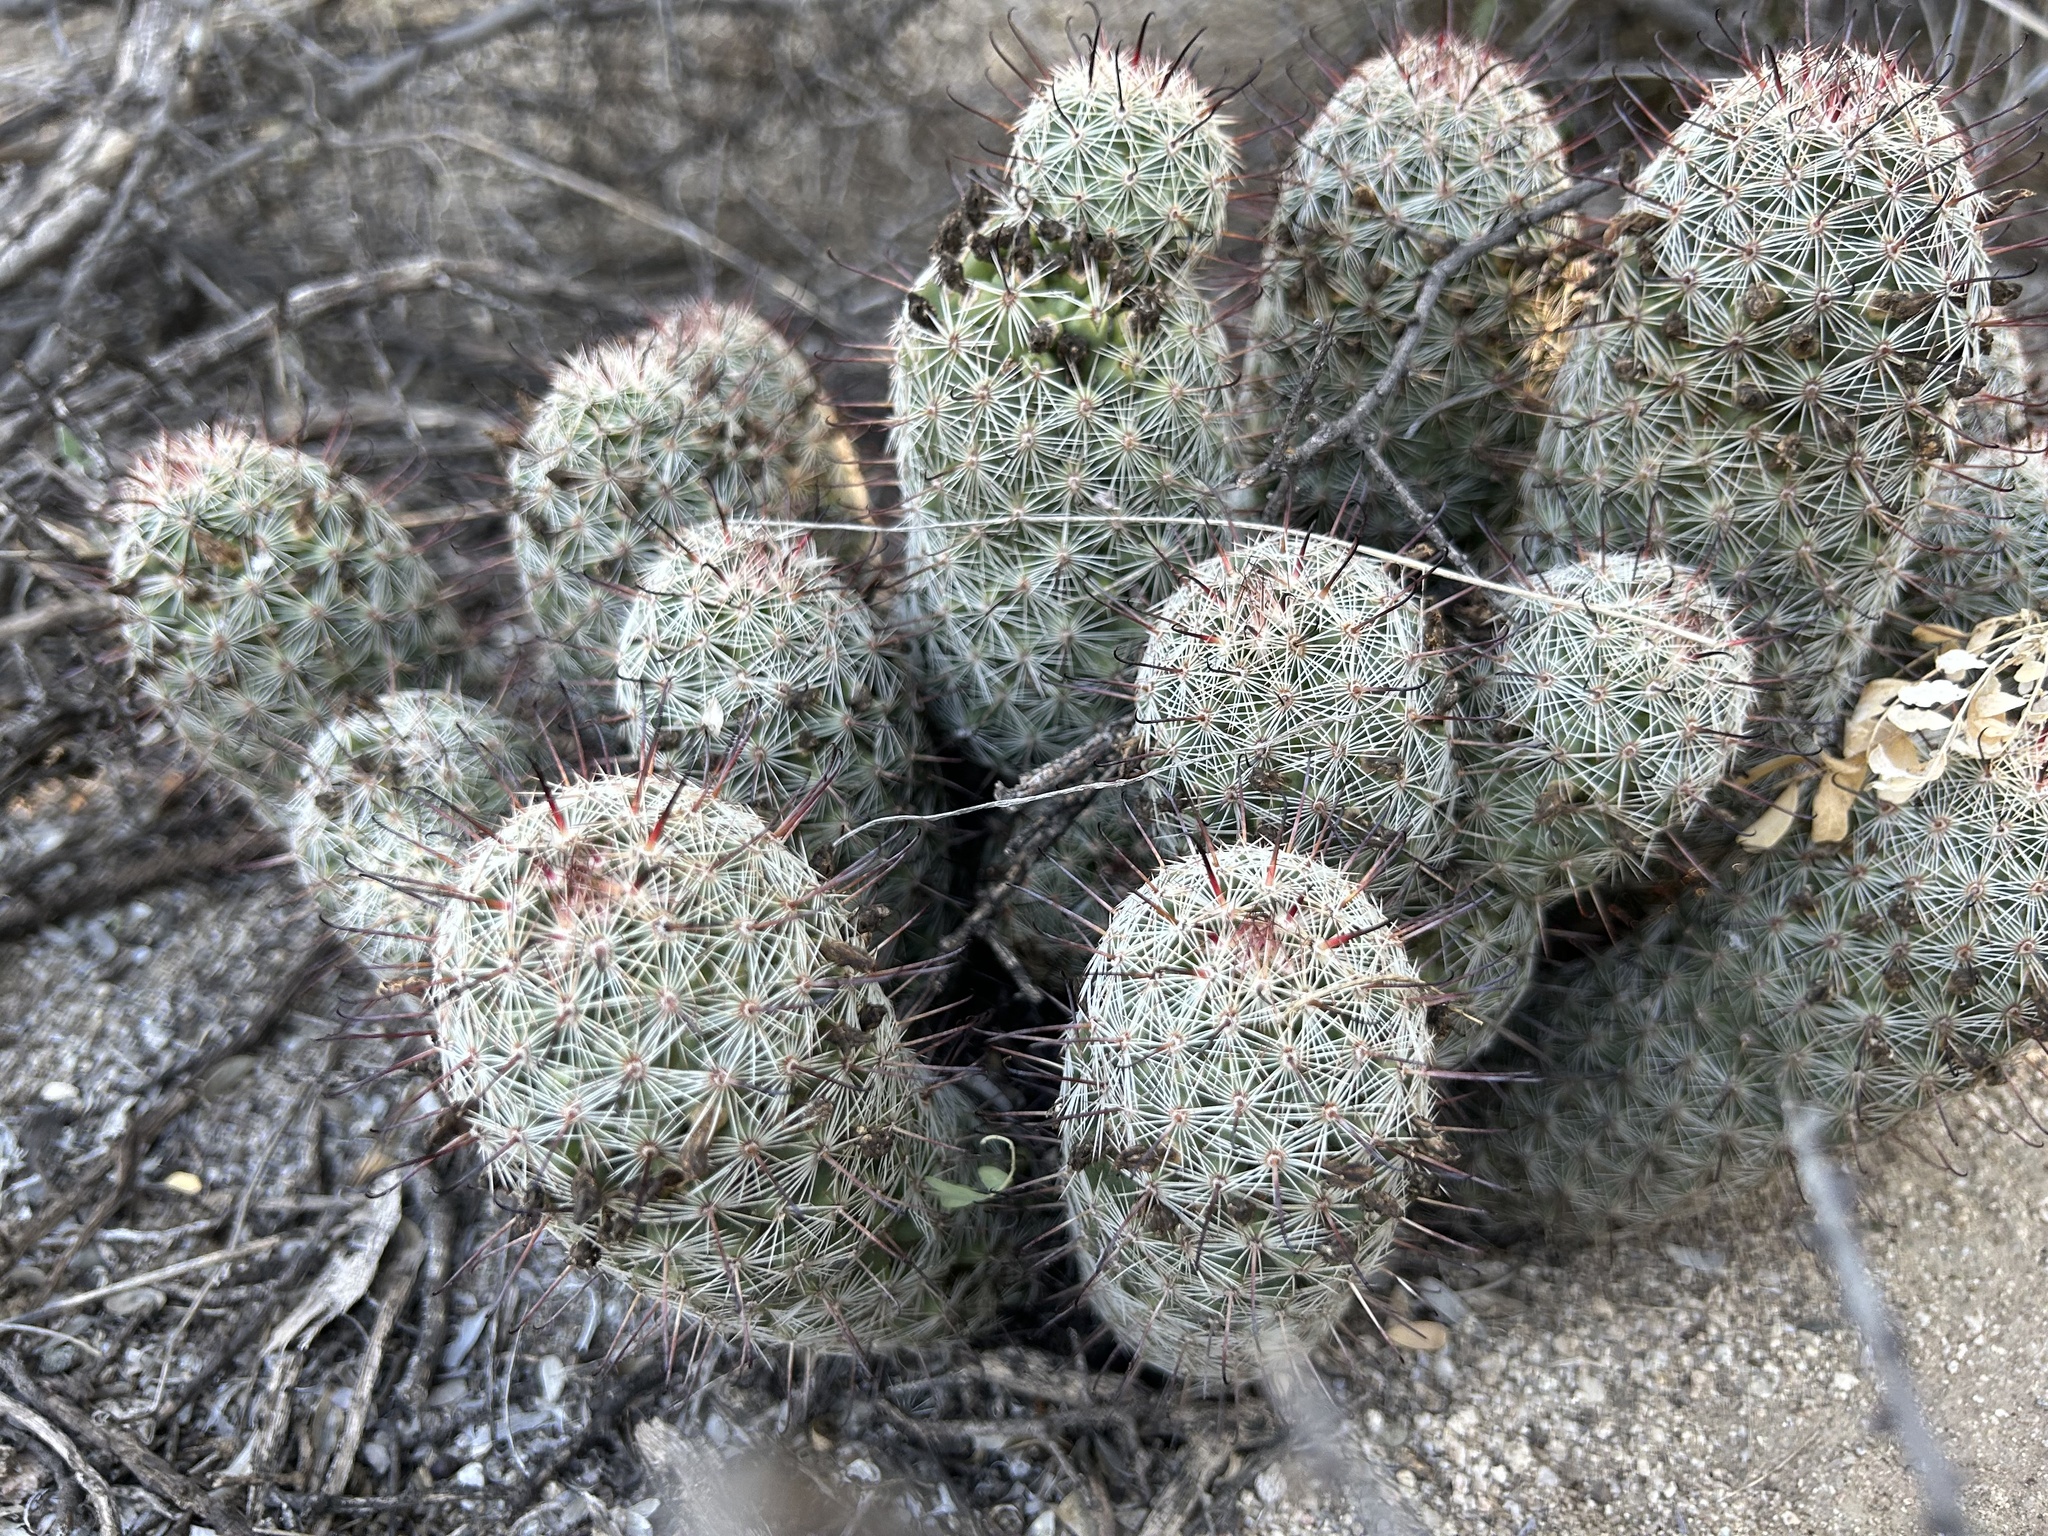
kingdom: Plantae
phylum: Tracheophyta
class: Magnoliopsida
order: Caryophyllales
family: Cactaceae
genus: Cochemiea
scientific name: Cochemiea grahamii
